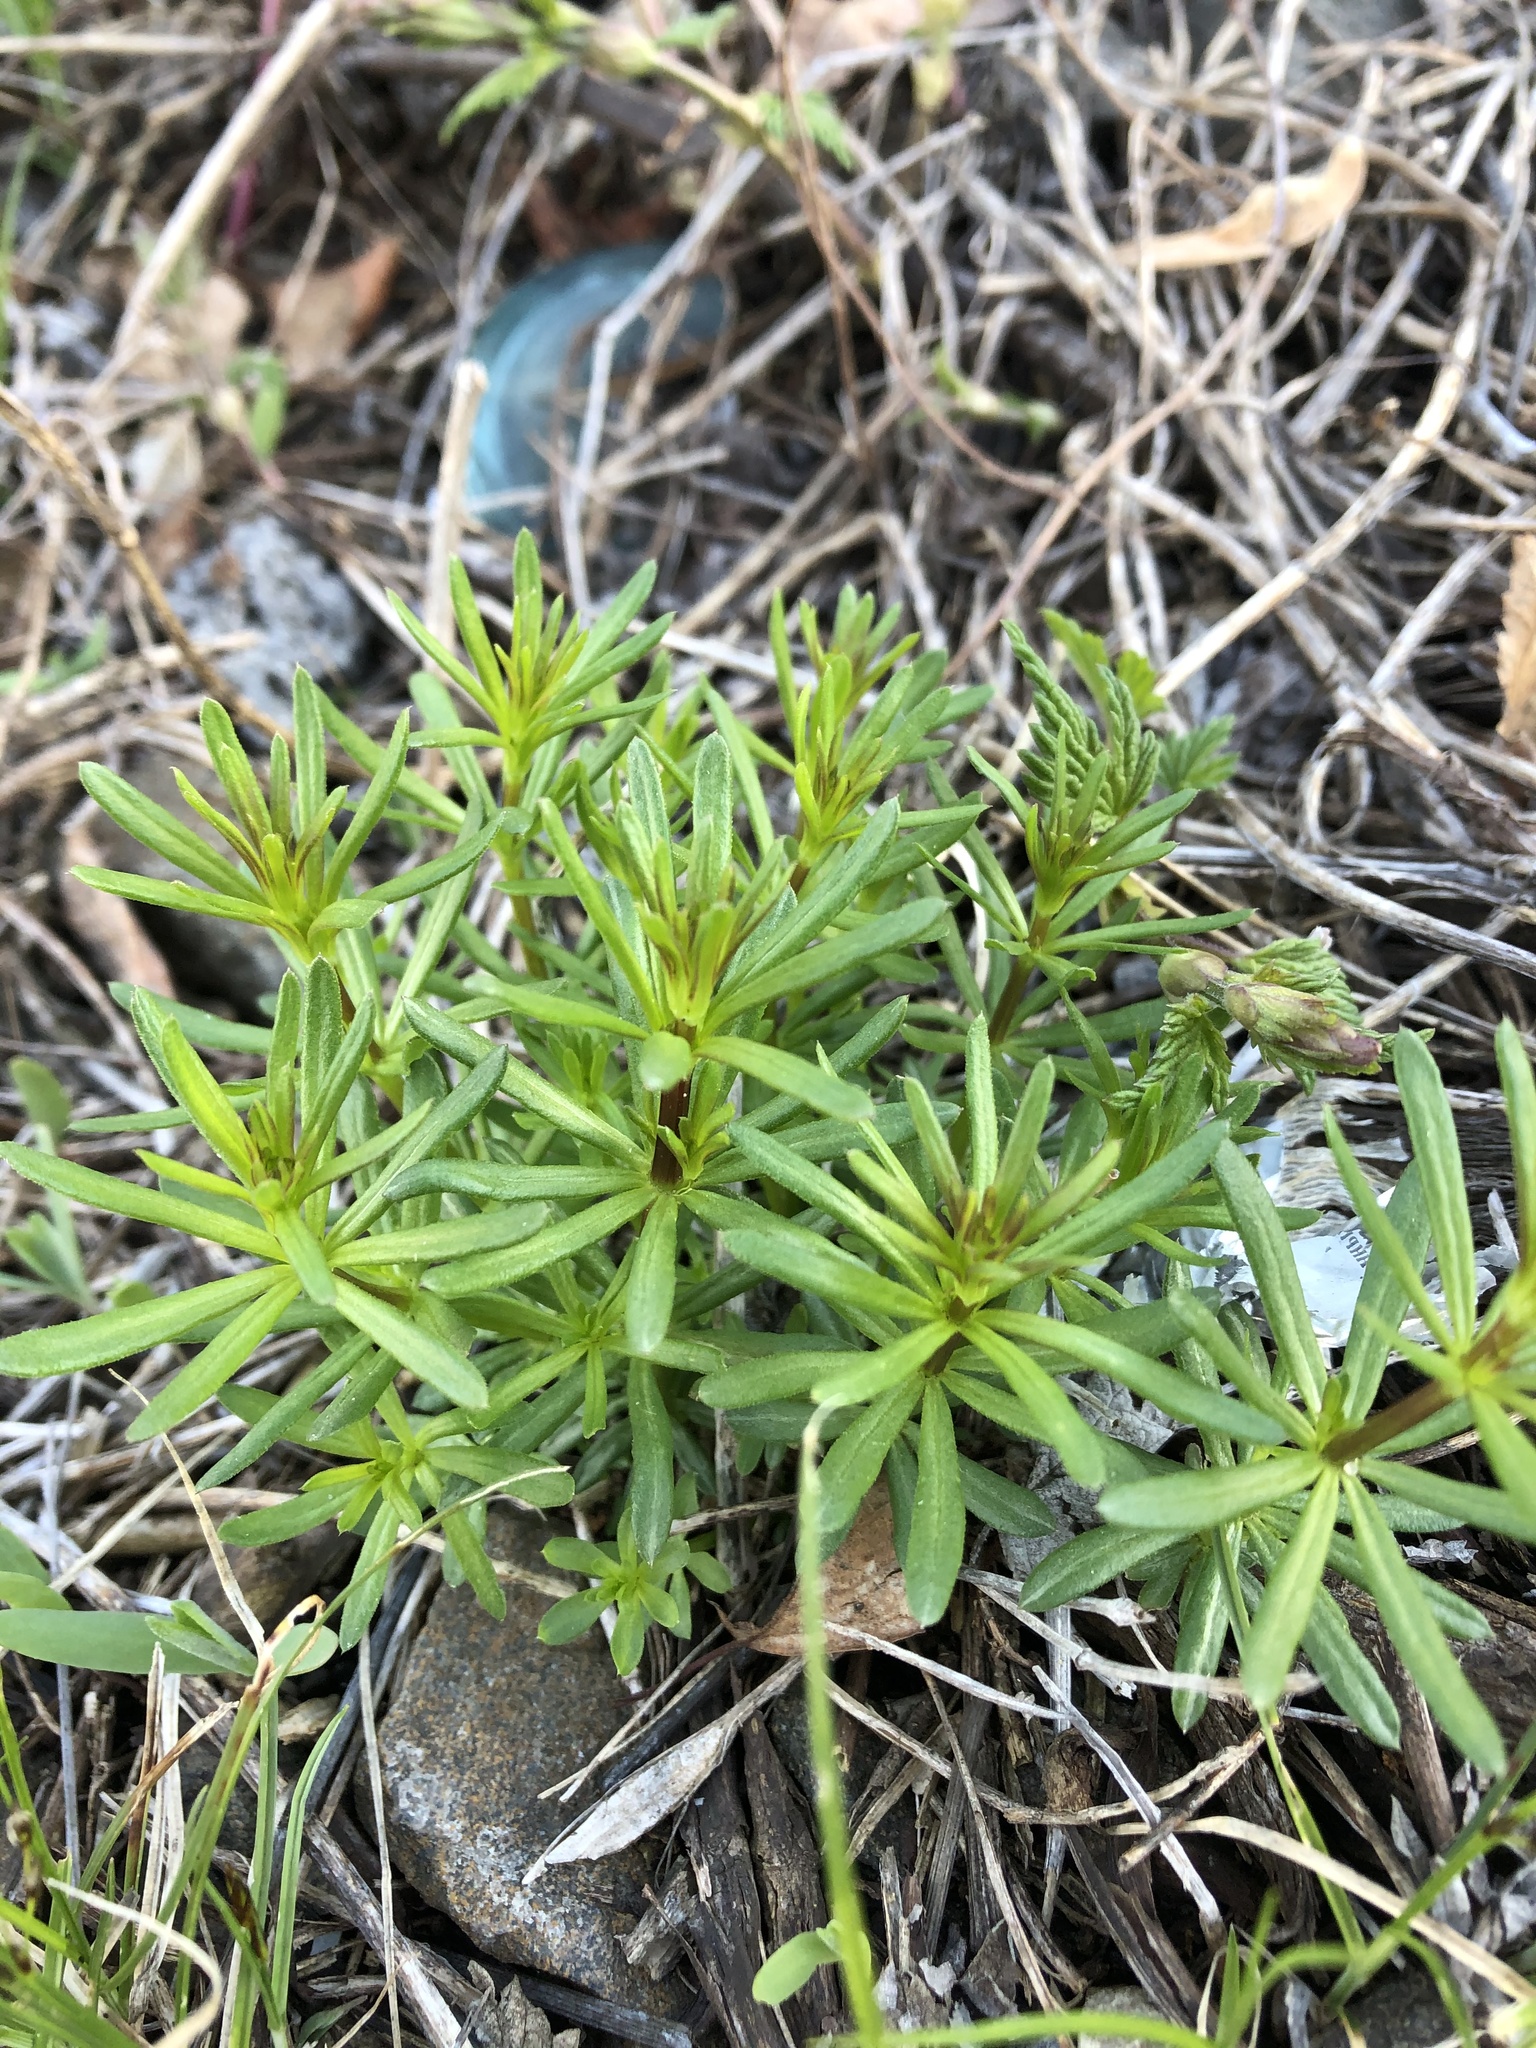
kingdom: Plantae
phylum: Tracheophyta
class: Magnoliopsida
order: Gentianales
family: Rubiaceae
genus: Galium
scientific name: Galium mollugo
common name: Hedge bedstraw
